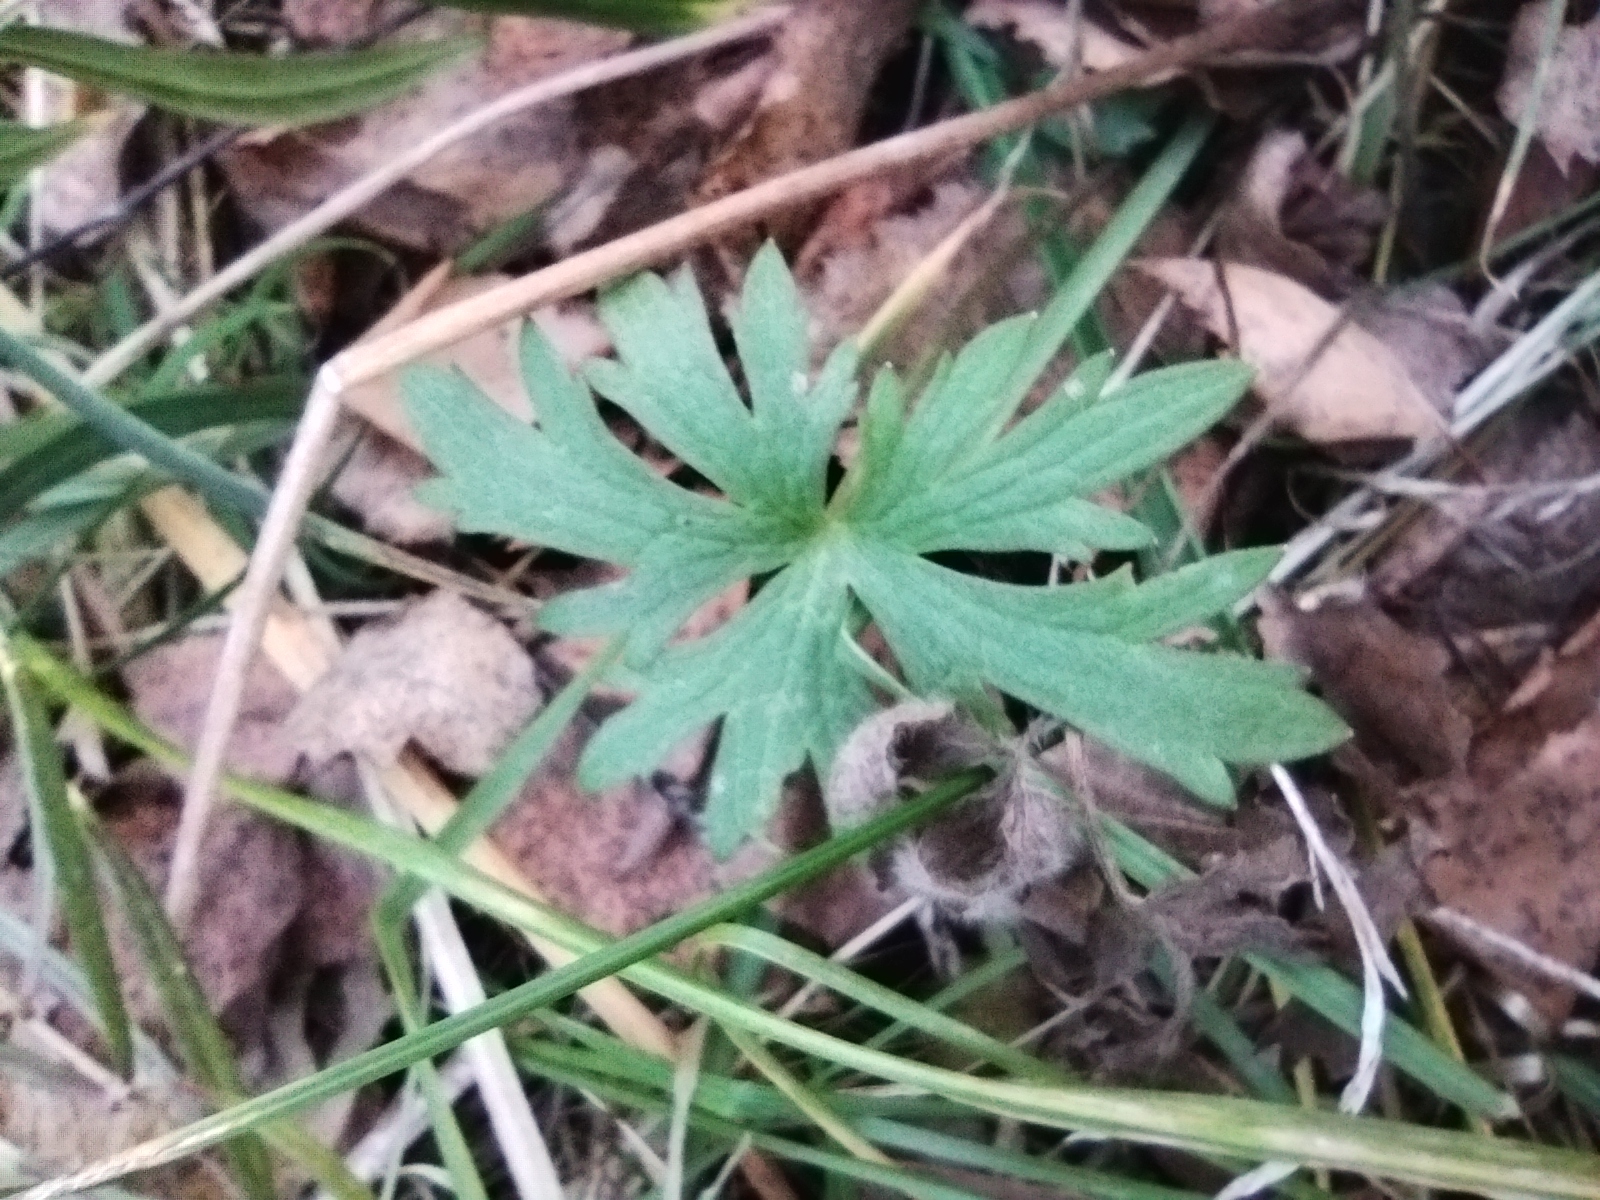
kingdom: Plantae
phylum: Tracheophyta
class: Magnoliopsida
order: Ranunculales
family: Ranunculaceae
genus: Ranunculus
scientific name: Ranunculus acris
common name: Meadow buttercup
